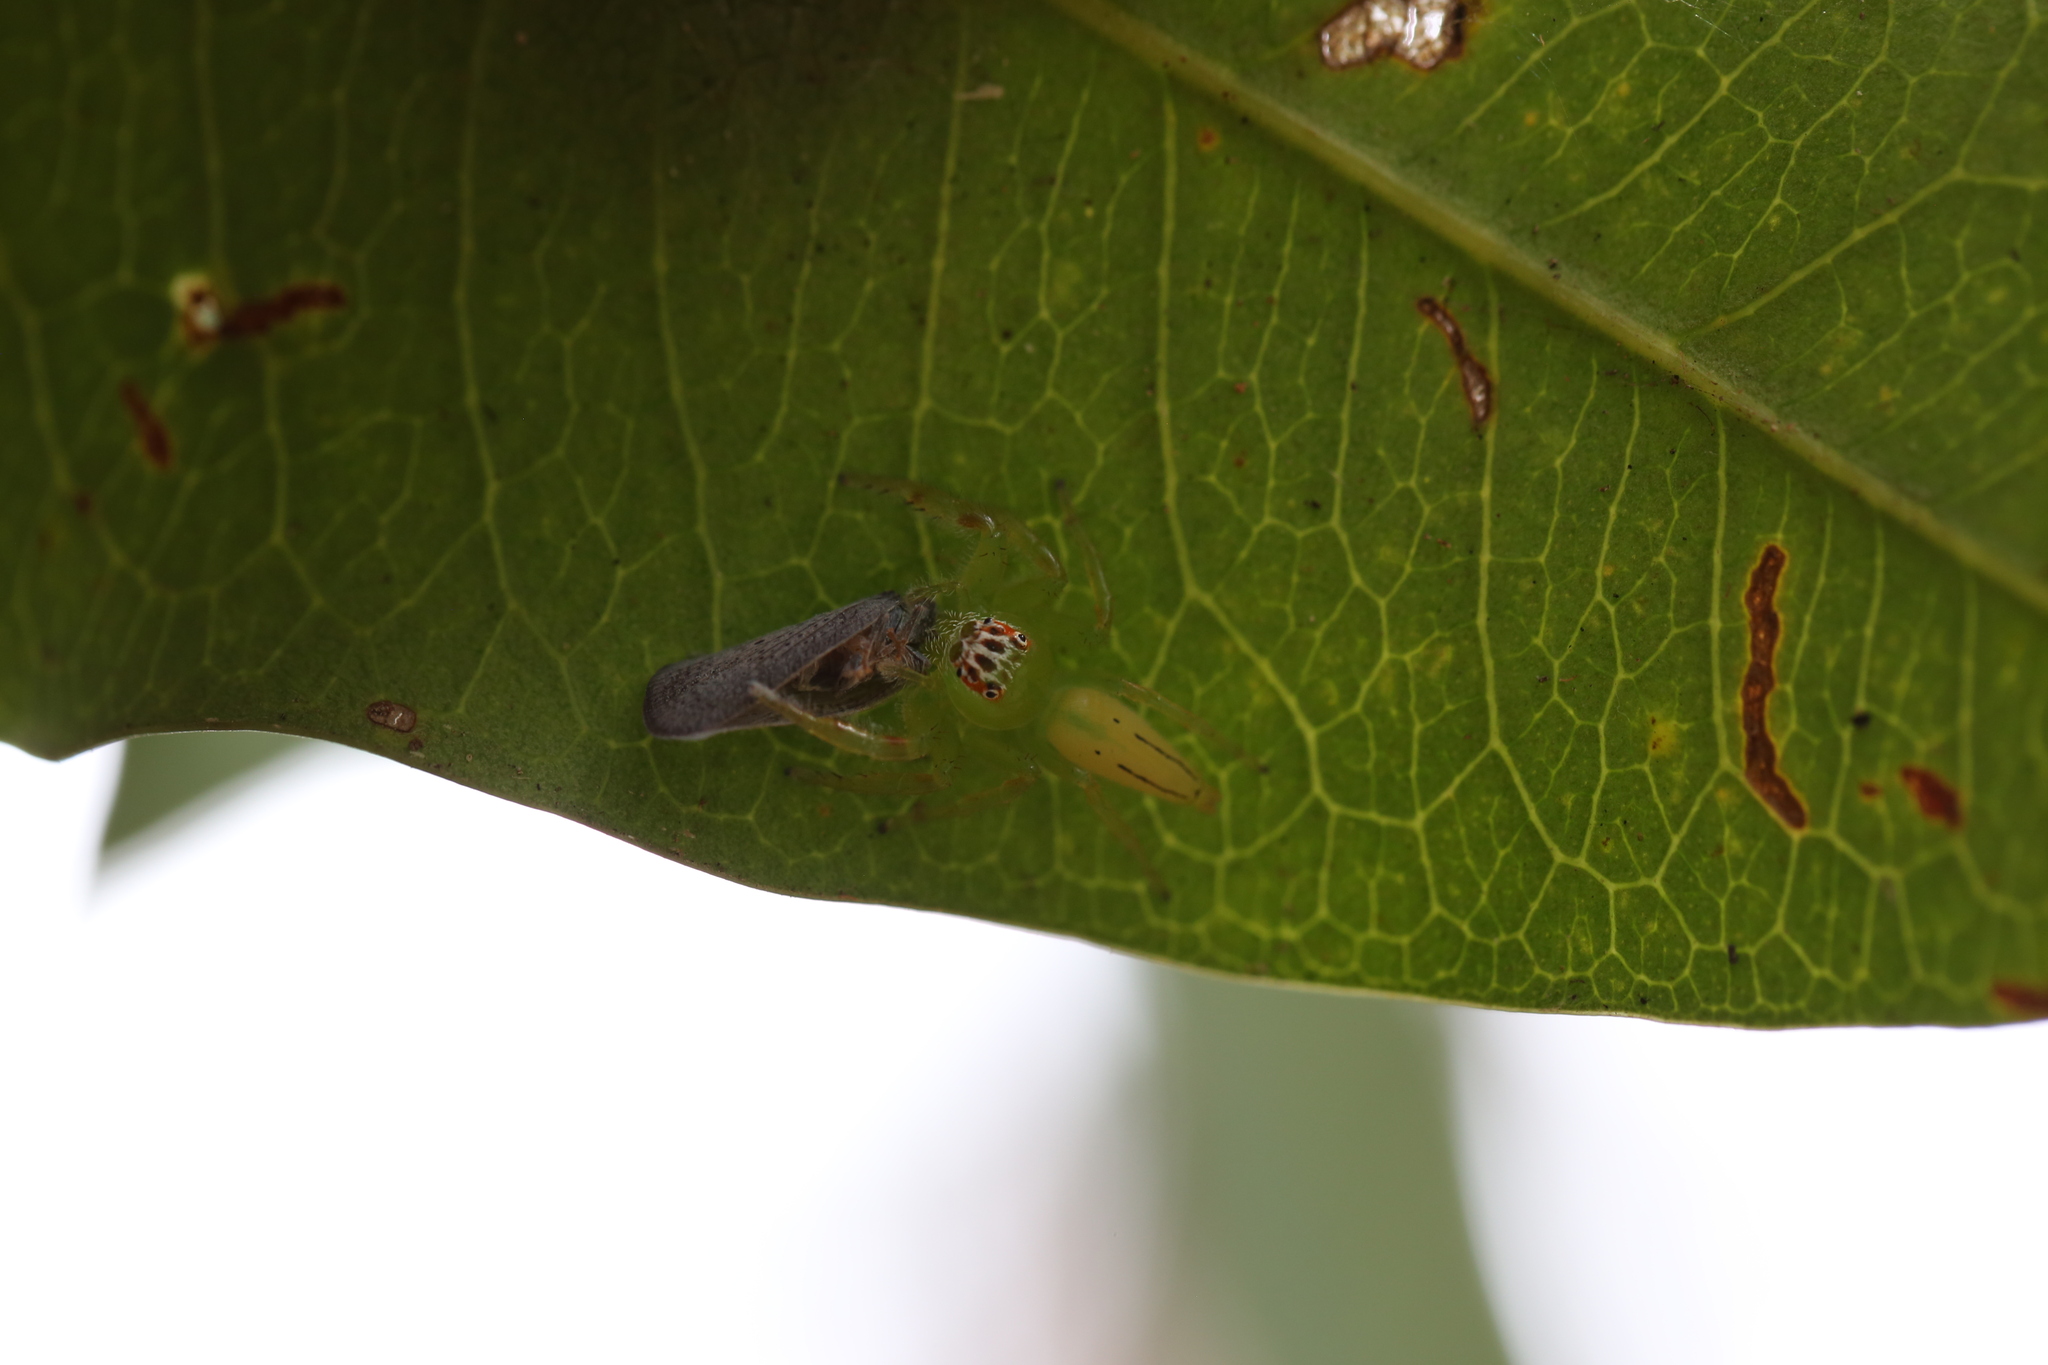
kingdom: Animalia
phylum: Arthropoda
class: Arachnida
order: Araneae
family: Salticidae
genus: Mopsus
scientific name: Mopsus mormon
